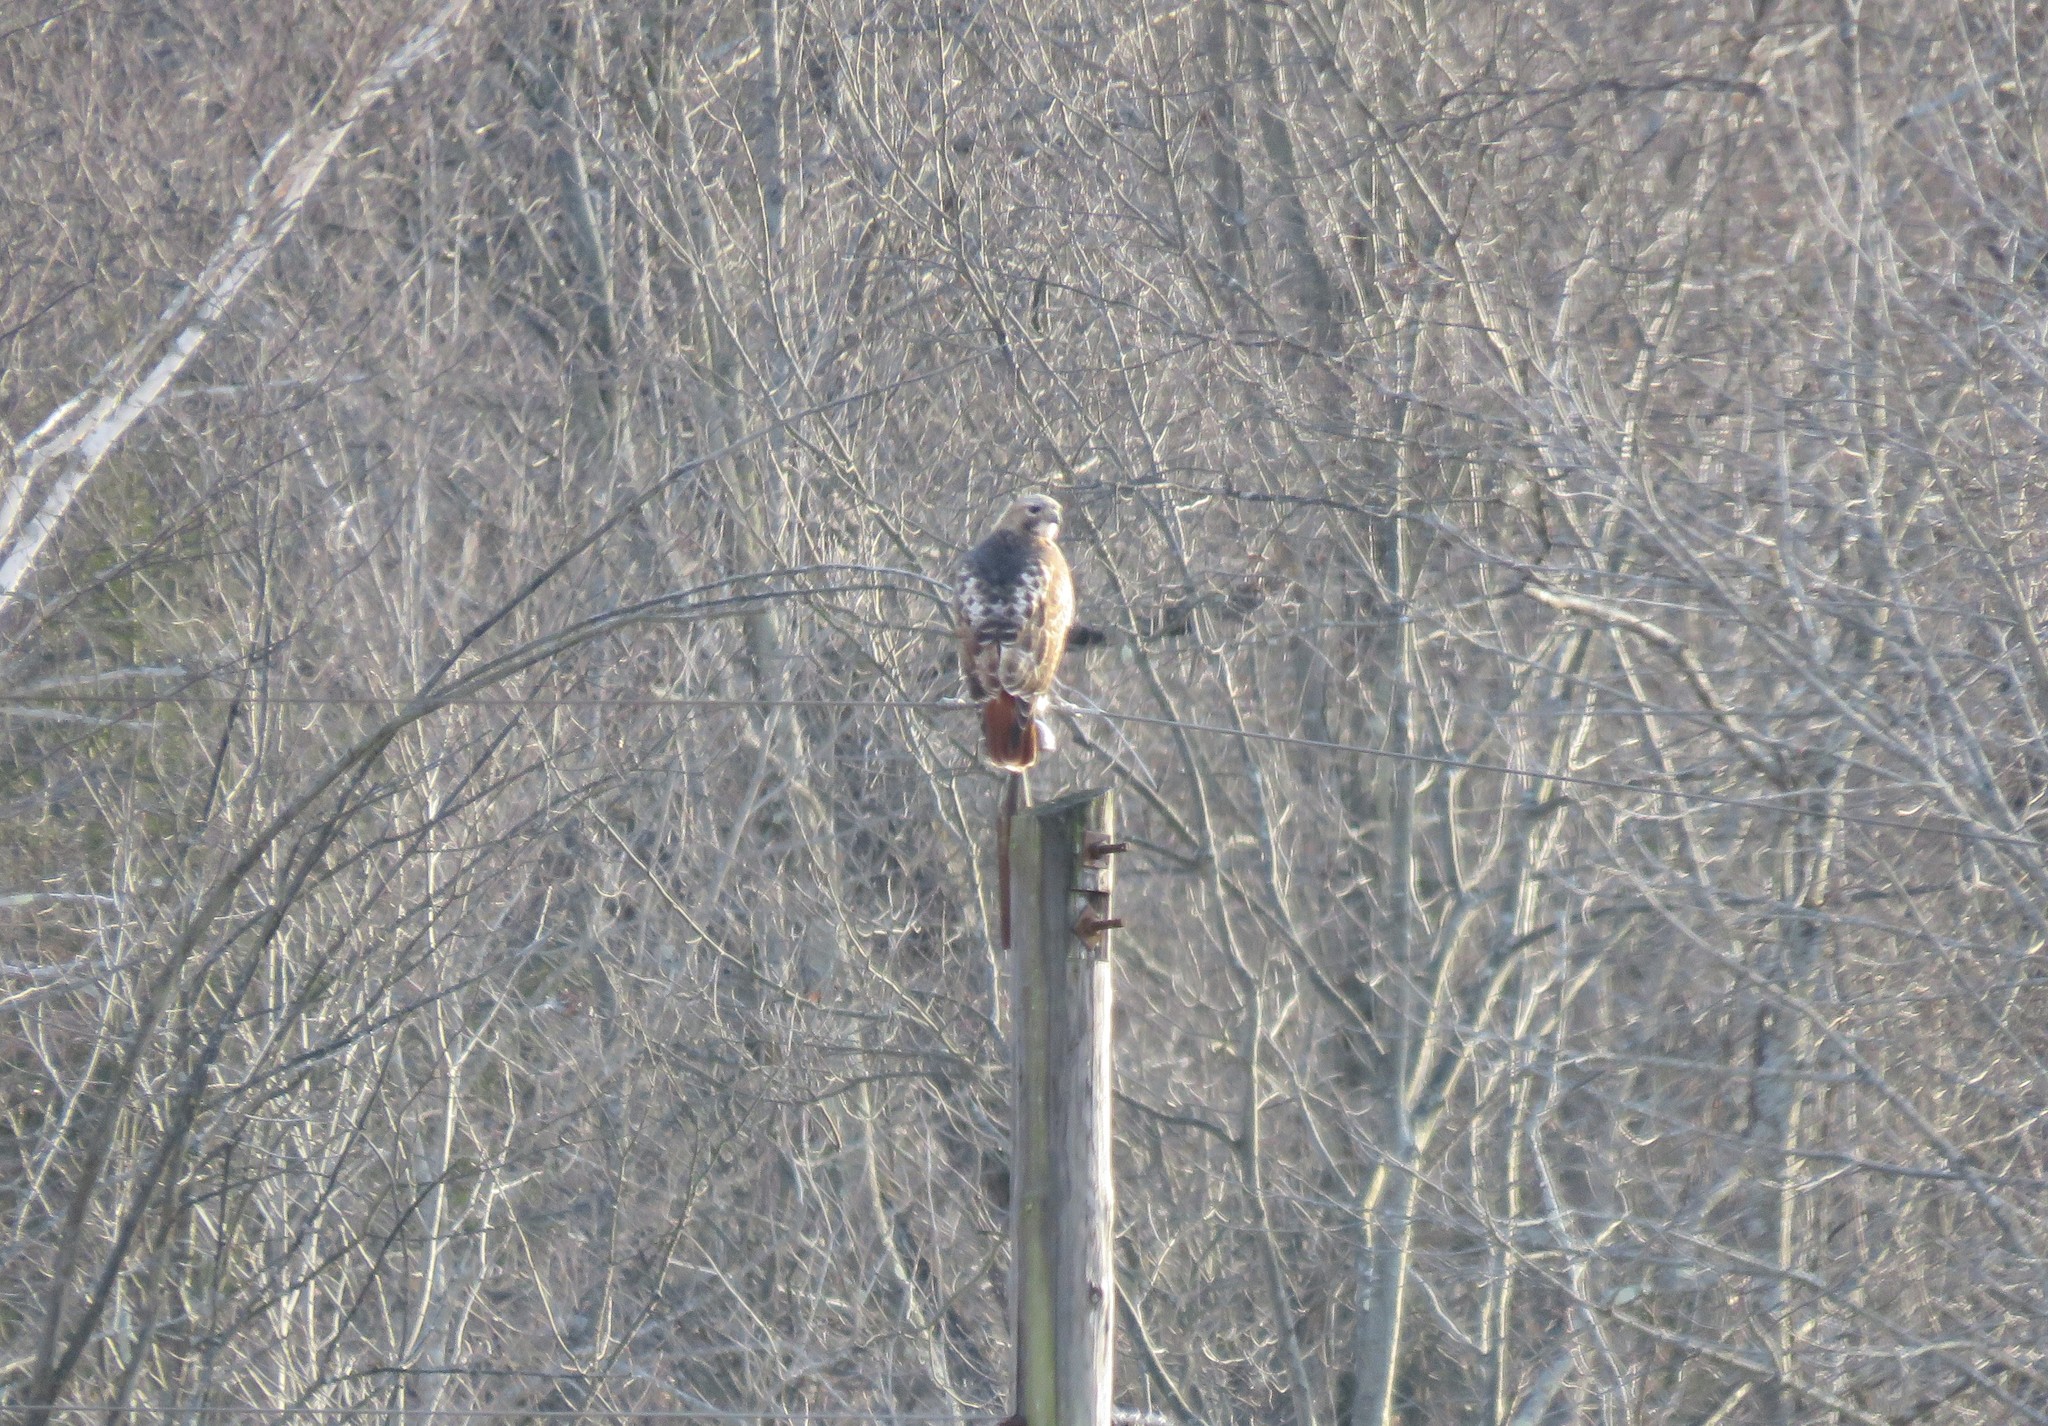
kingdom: Animalia
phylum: Chordata
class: Aves
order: Accipitriformes
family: Accipitridae
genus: Buteo
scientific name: Buteo jamaicensis
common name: Red-tailed hawk
